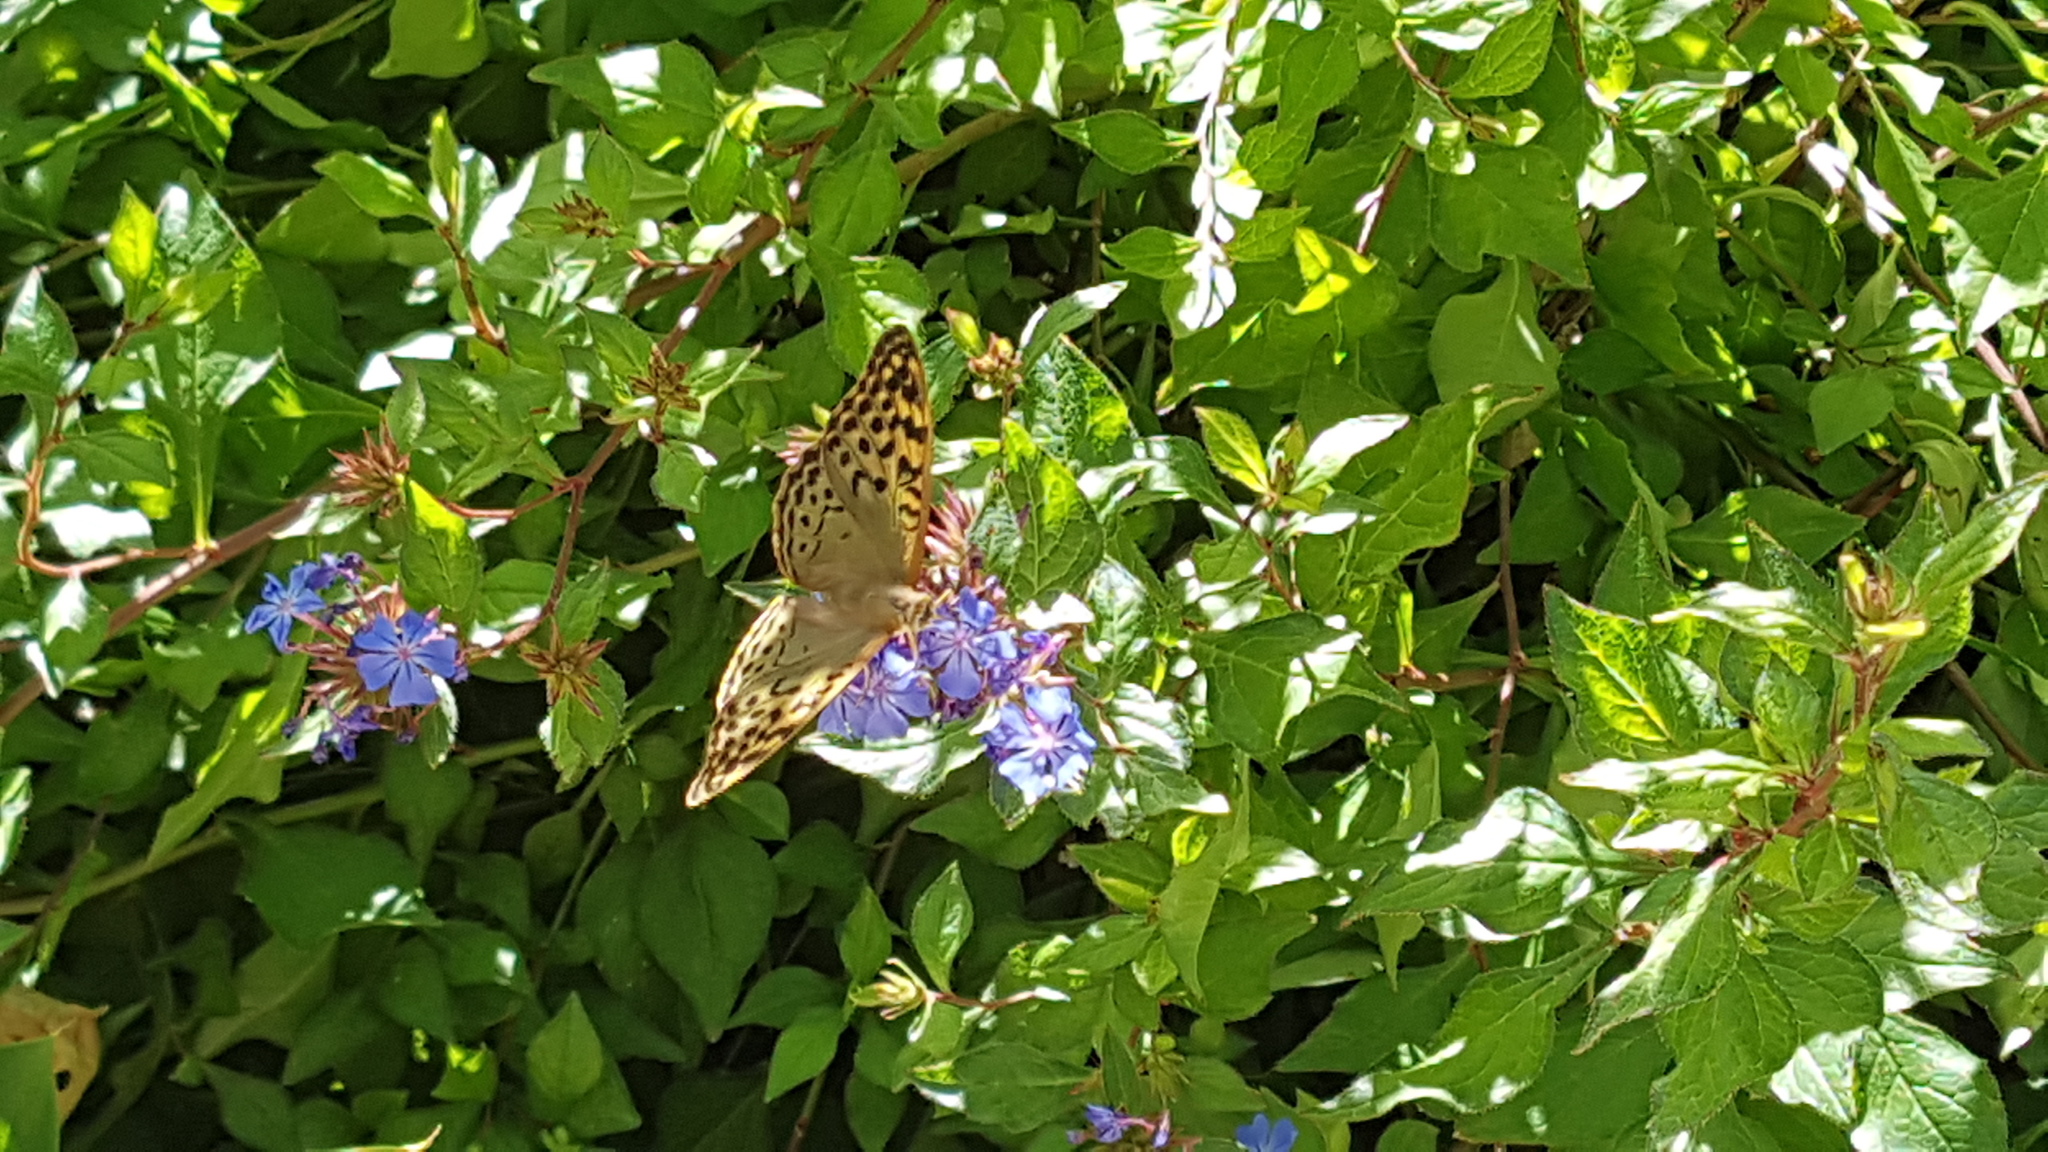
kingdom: Animalia
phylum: Arthropoda
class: Insecta
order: Lepidoptera
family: Nymphalidae
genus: Damora
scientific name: Damora pandora
